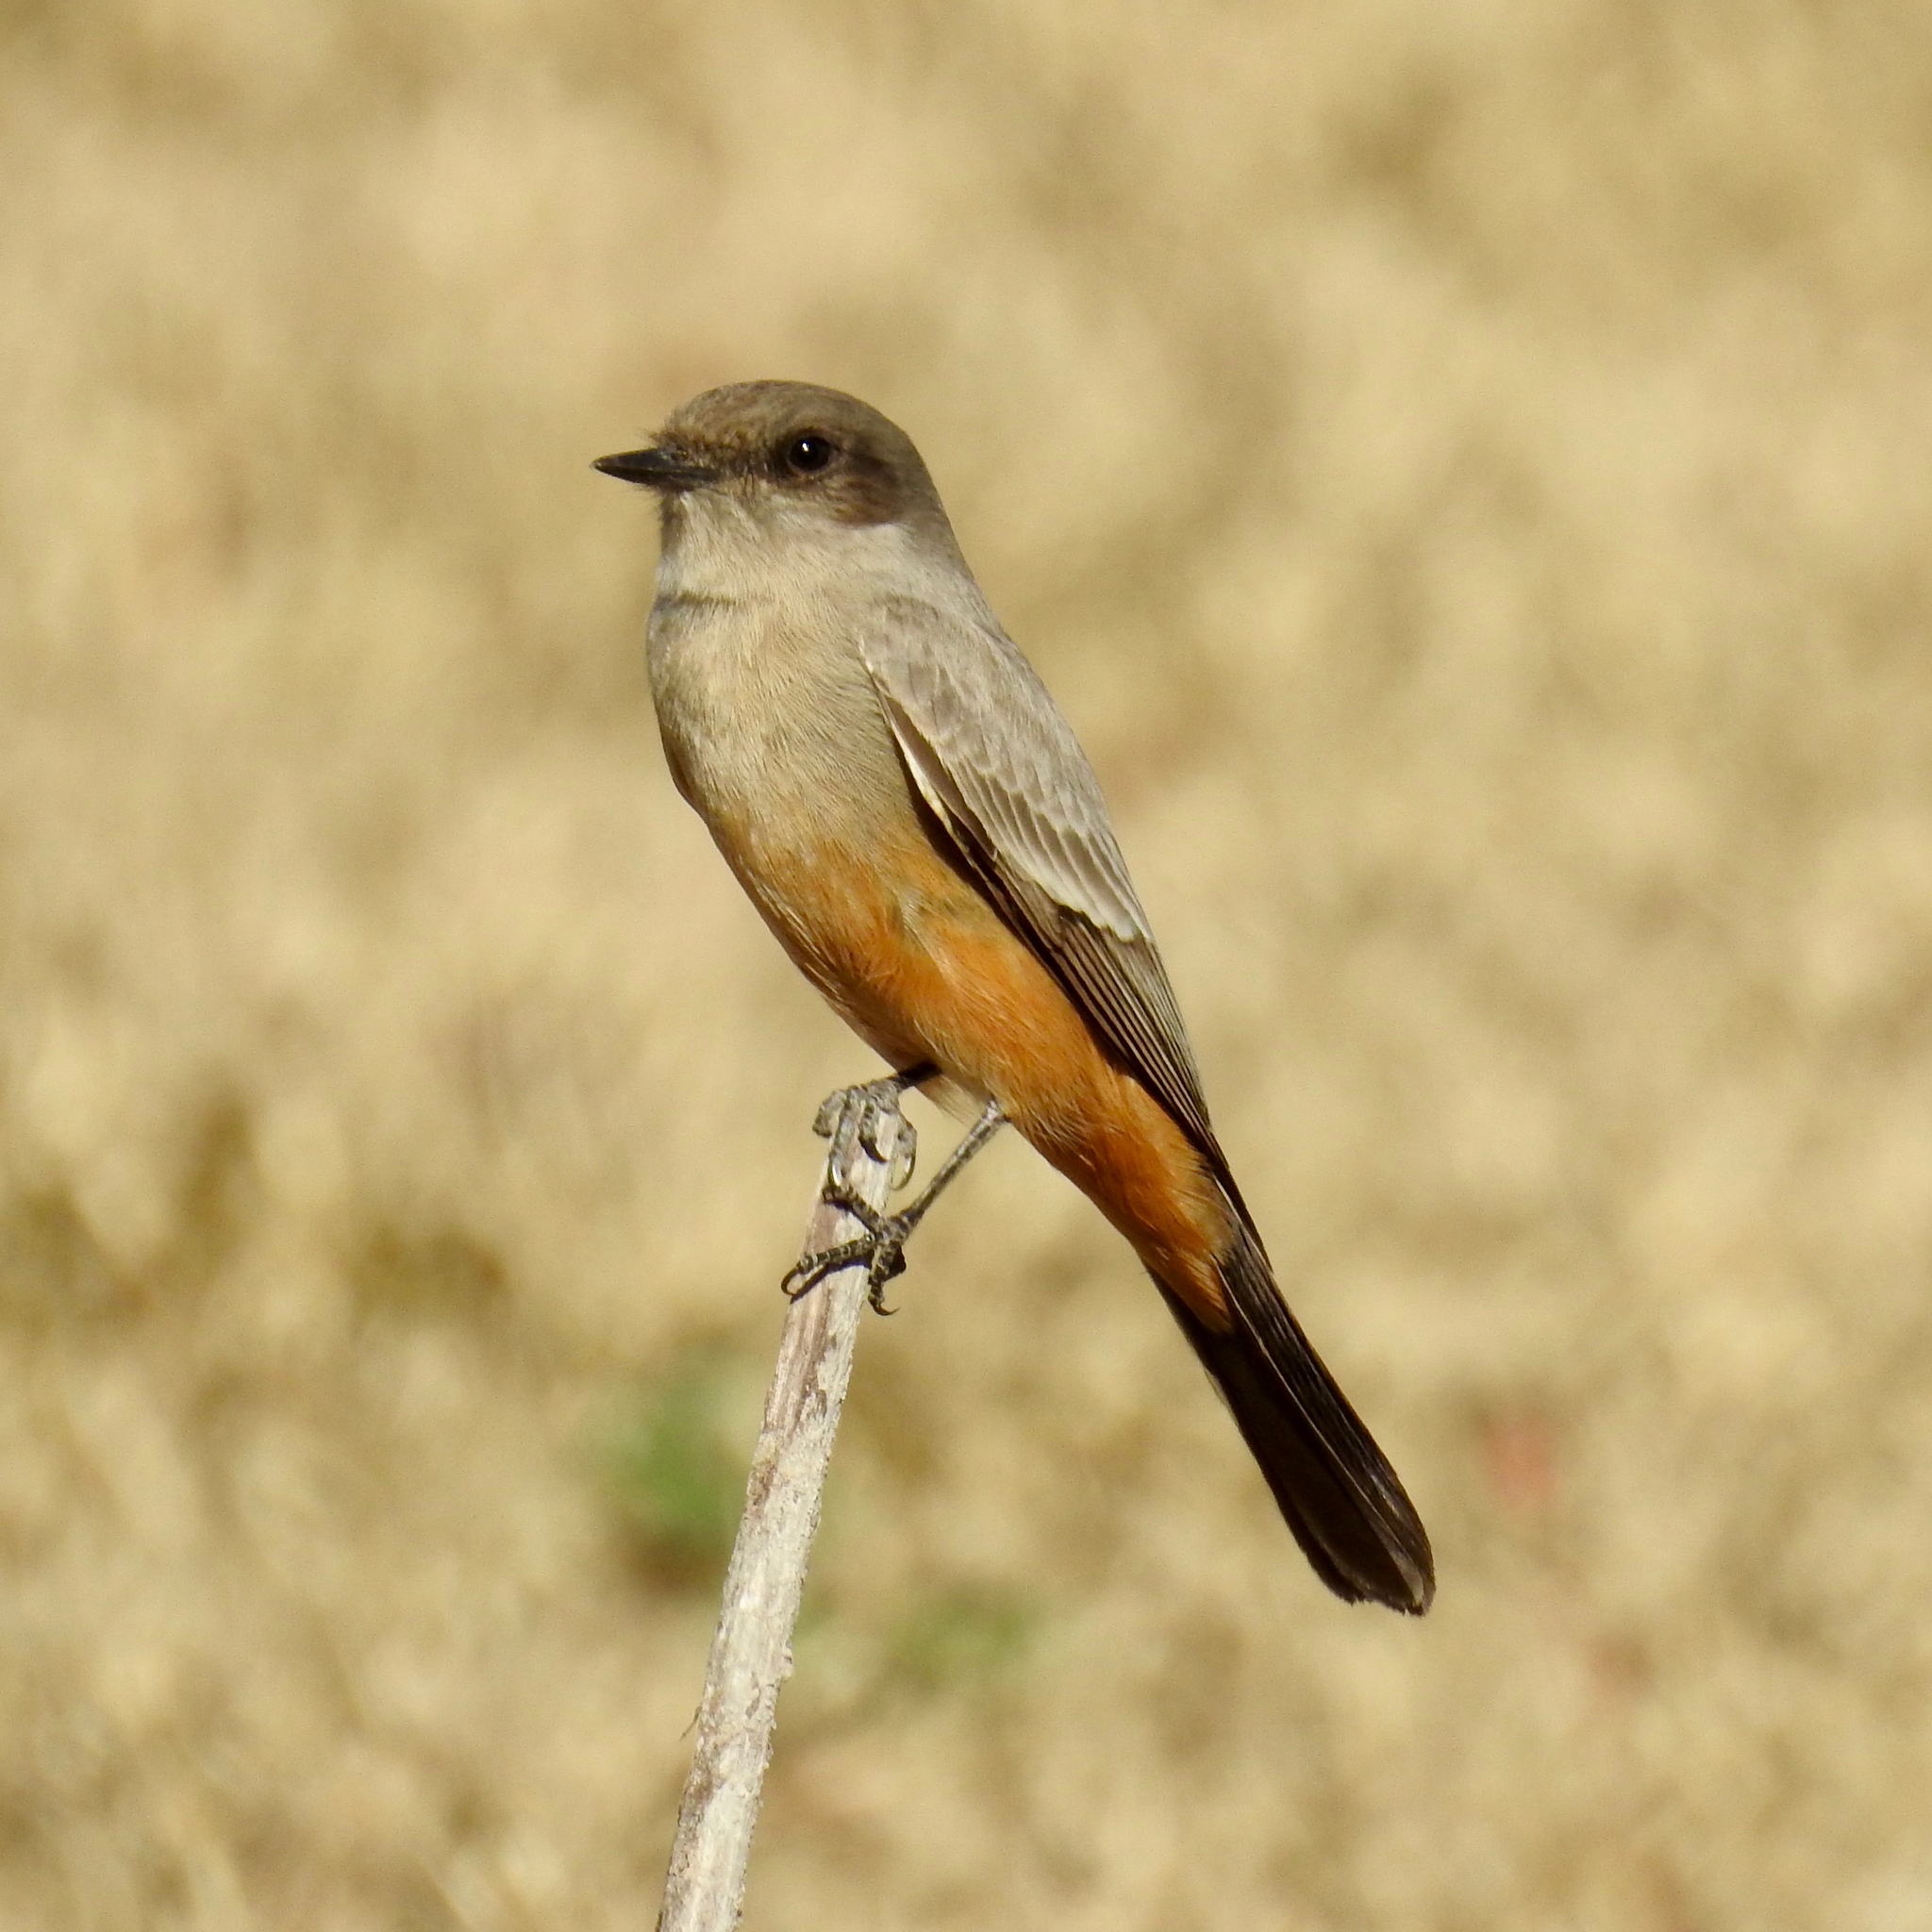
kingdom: Animalia
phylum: Chordata
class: Aves
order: Passeriformes
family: Tyrannidae
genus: Sayornis
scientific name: Sayornis saya
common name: Say's phoebe
